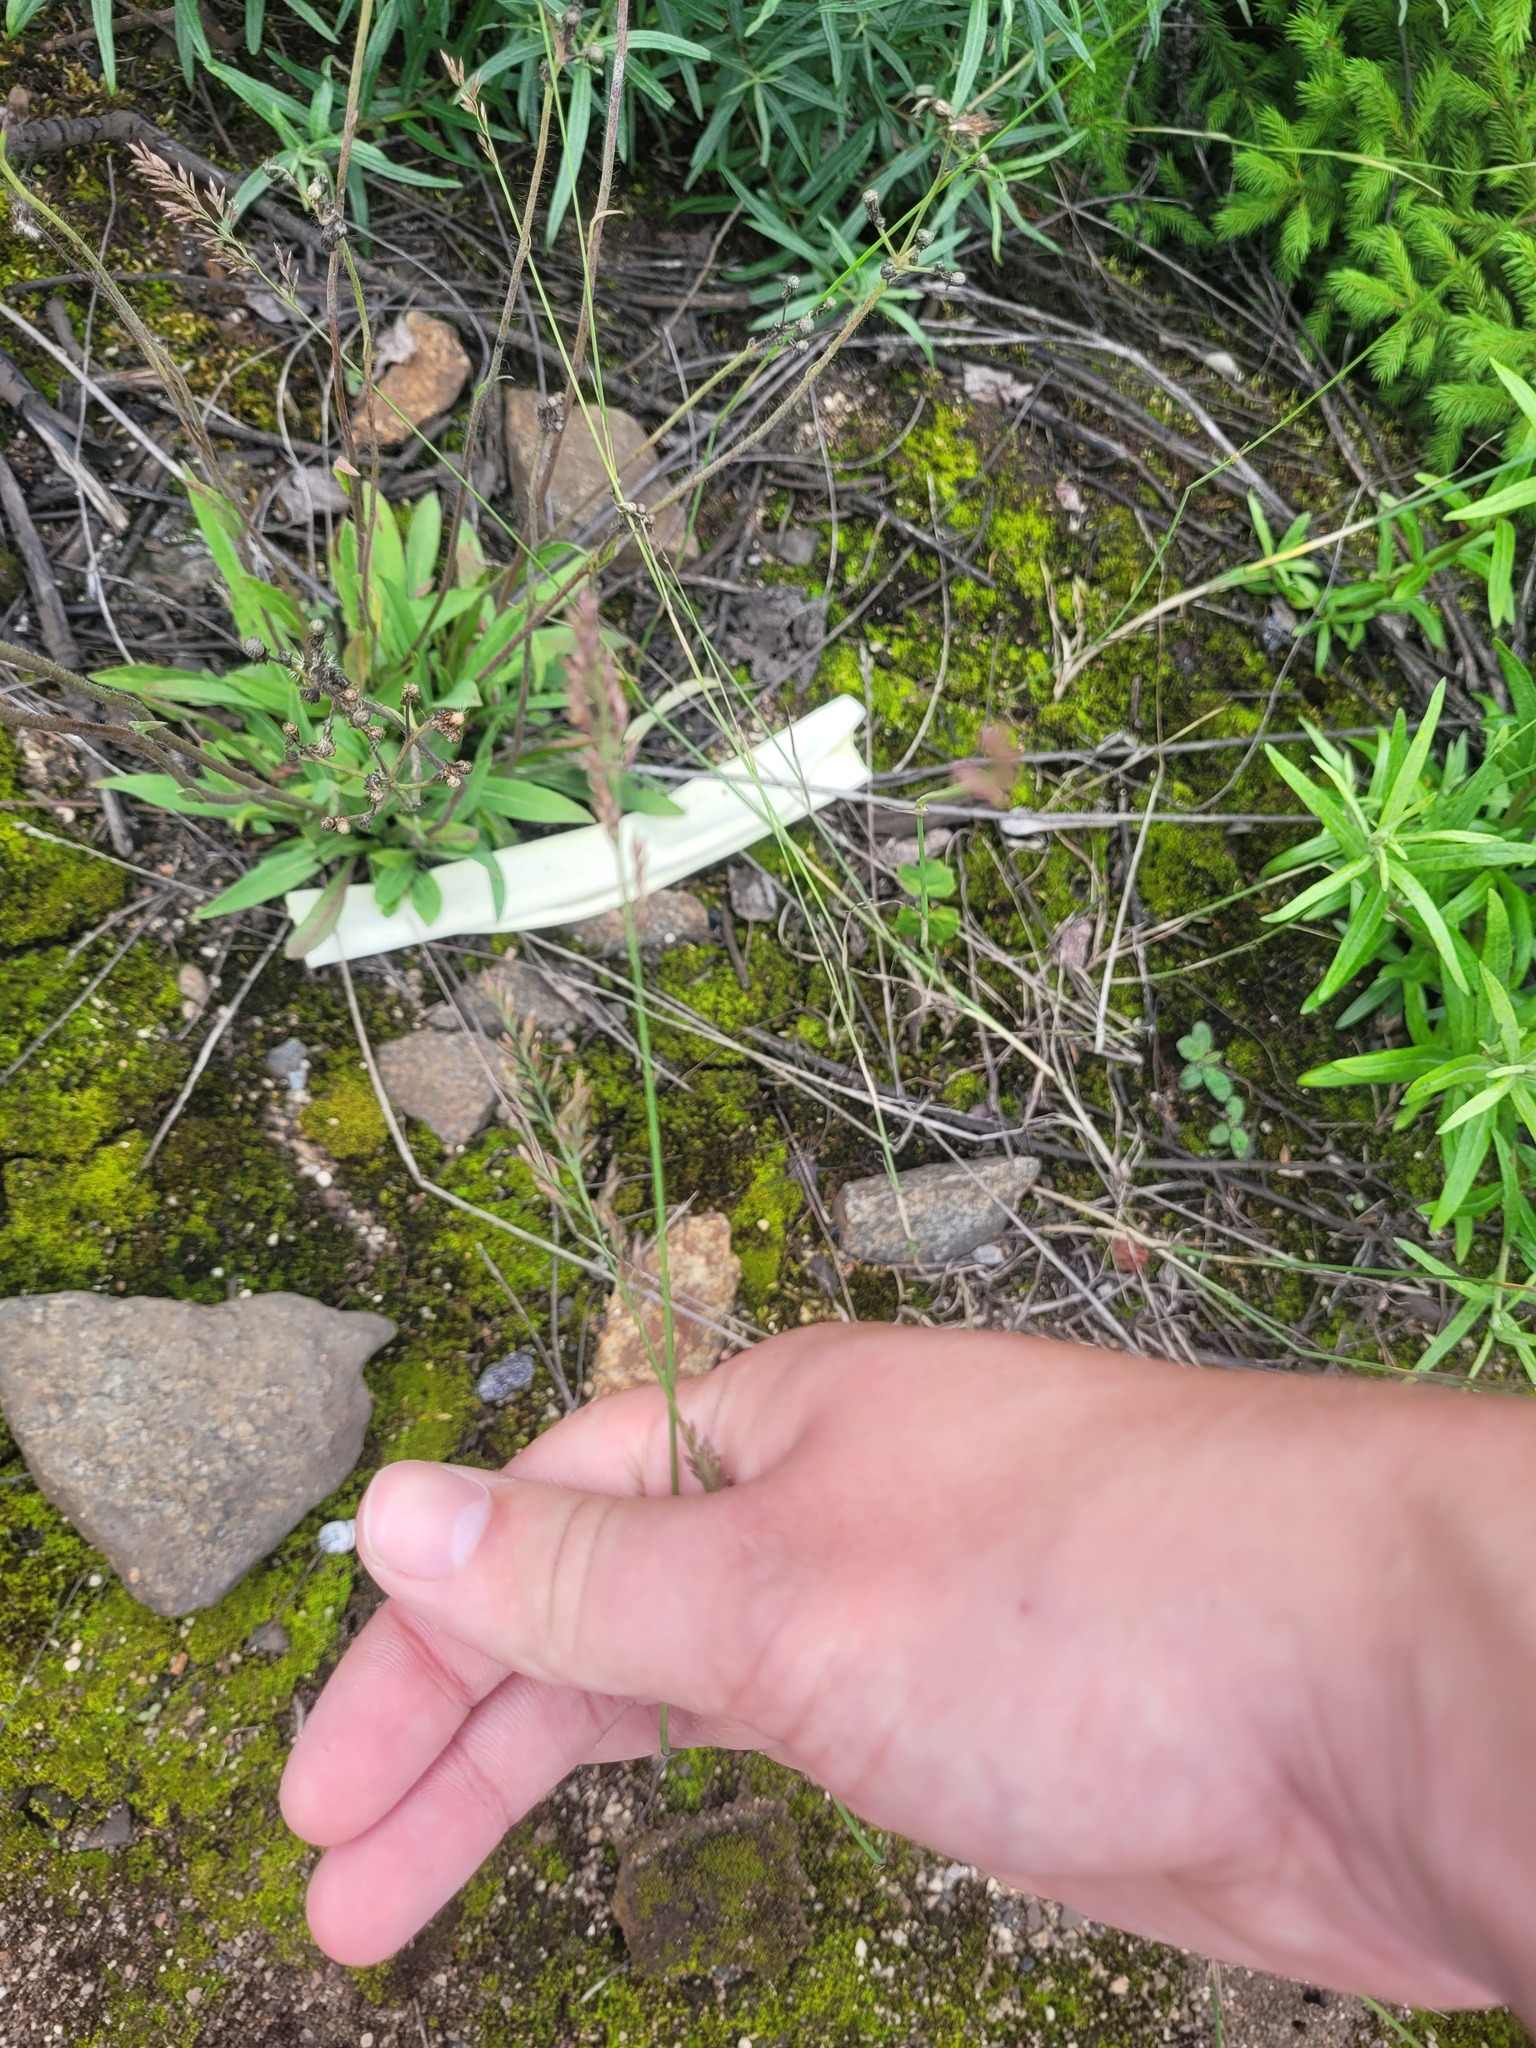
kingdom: Plantae
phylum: Tracheophyta
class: Liliopsida
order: Poales
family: Poaceae
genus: Poa
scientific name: Poa compressa
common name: Canada bluegrass
